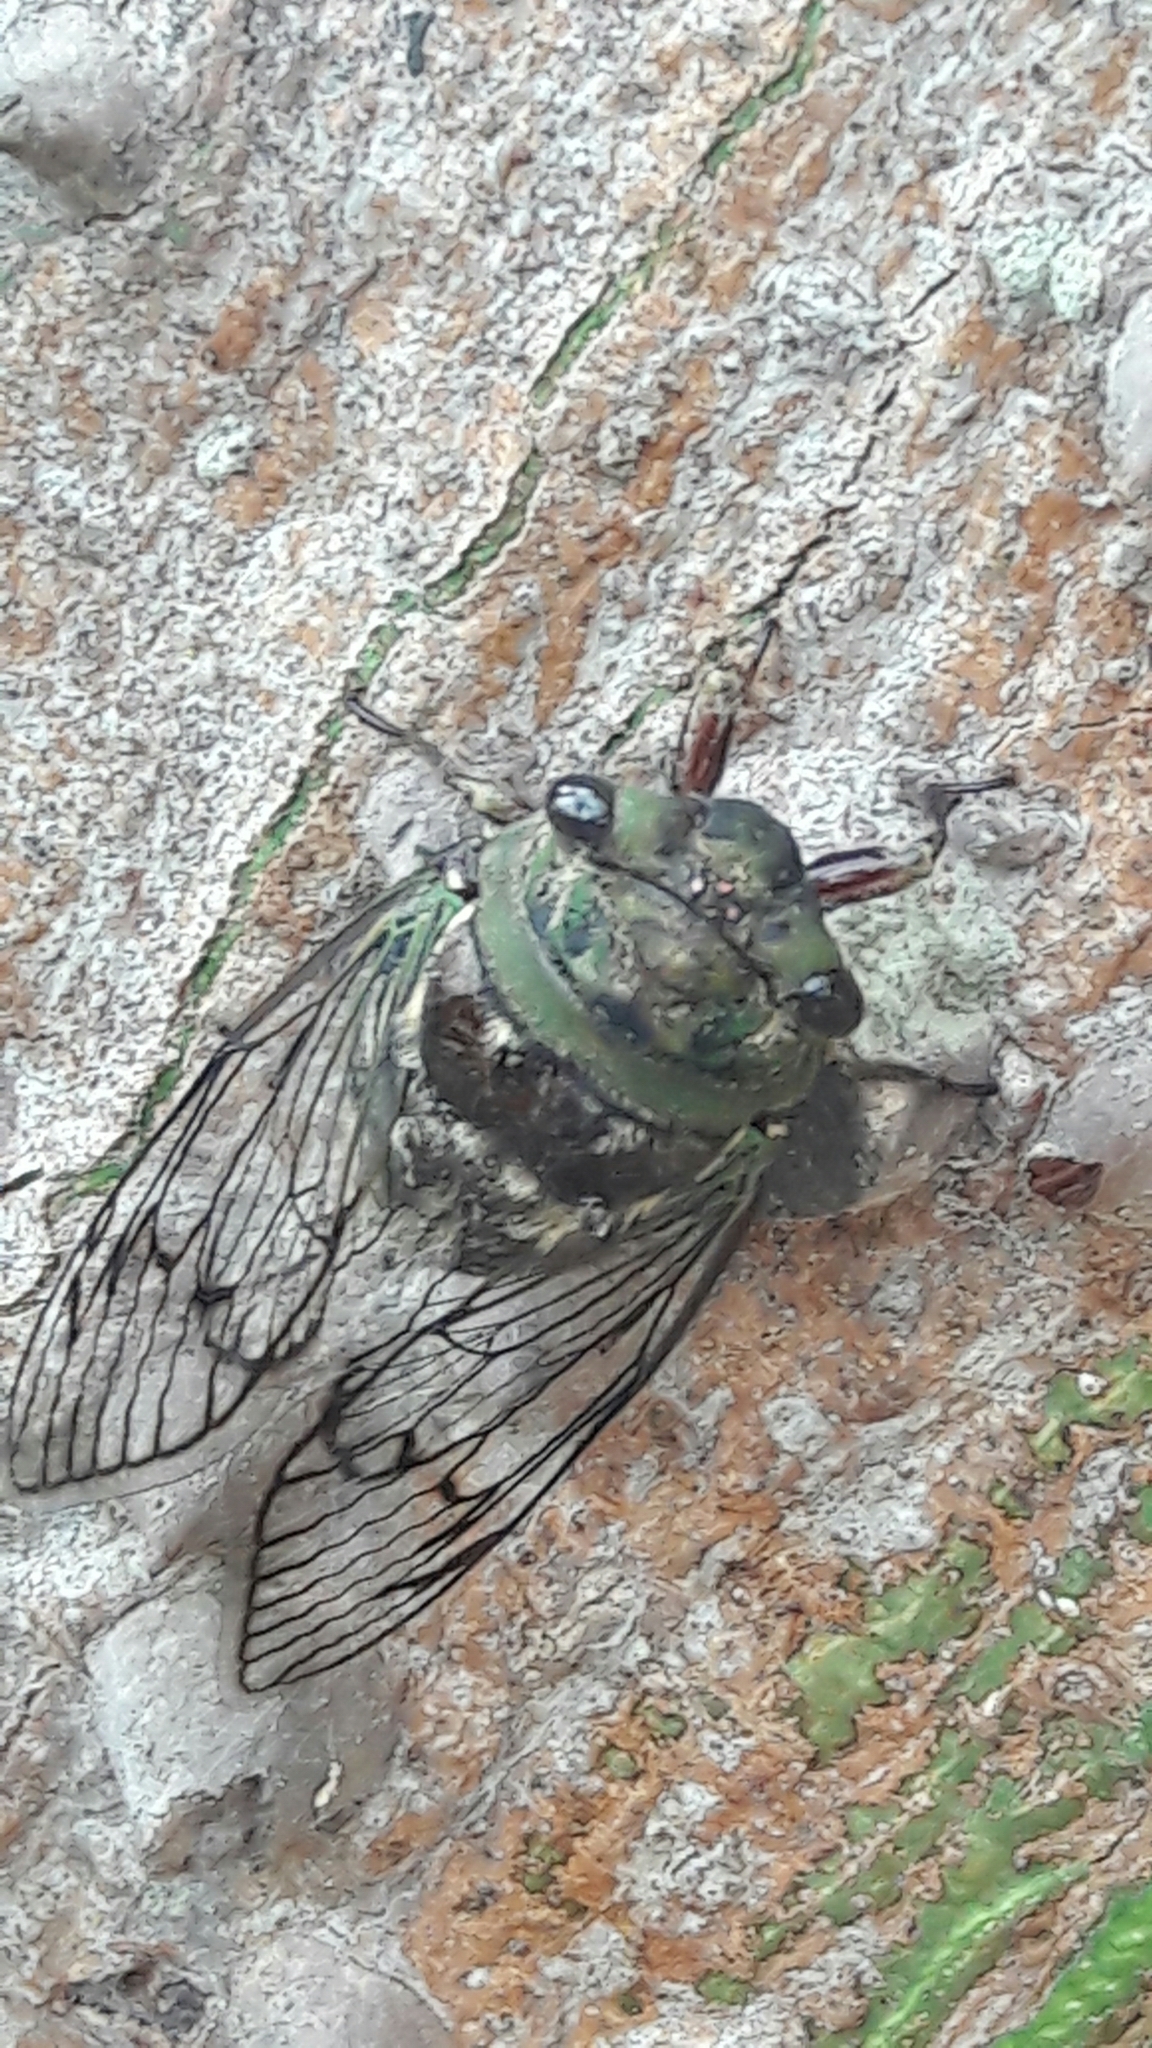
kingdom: Animalia
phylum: Arthropoda
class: Insecta
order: Hemiptera
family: Cicadidae
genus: Fidicina
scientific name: Fidicina toulgoeti
